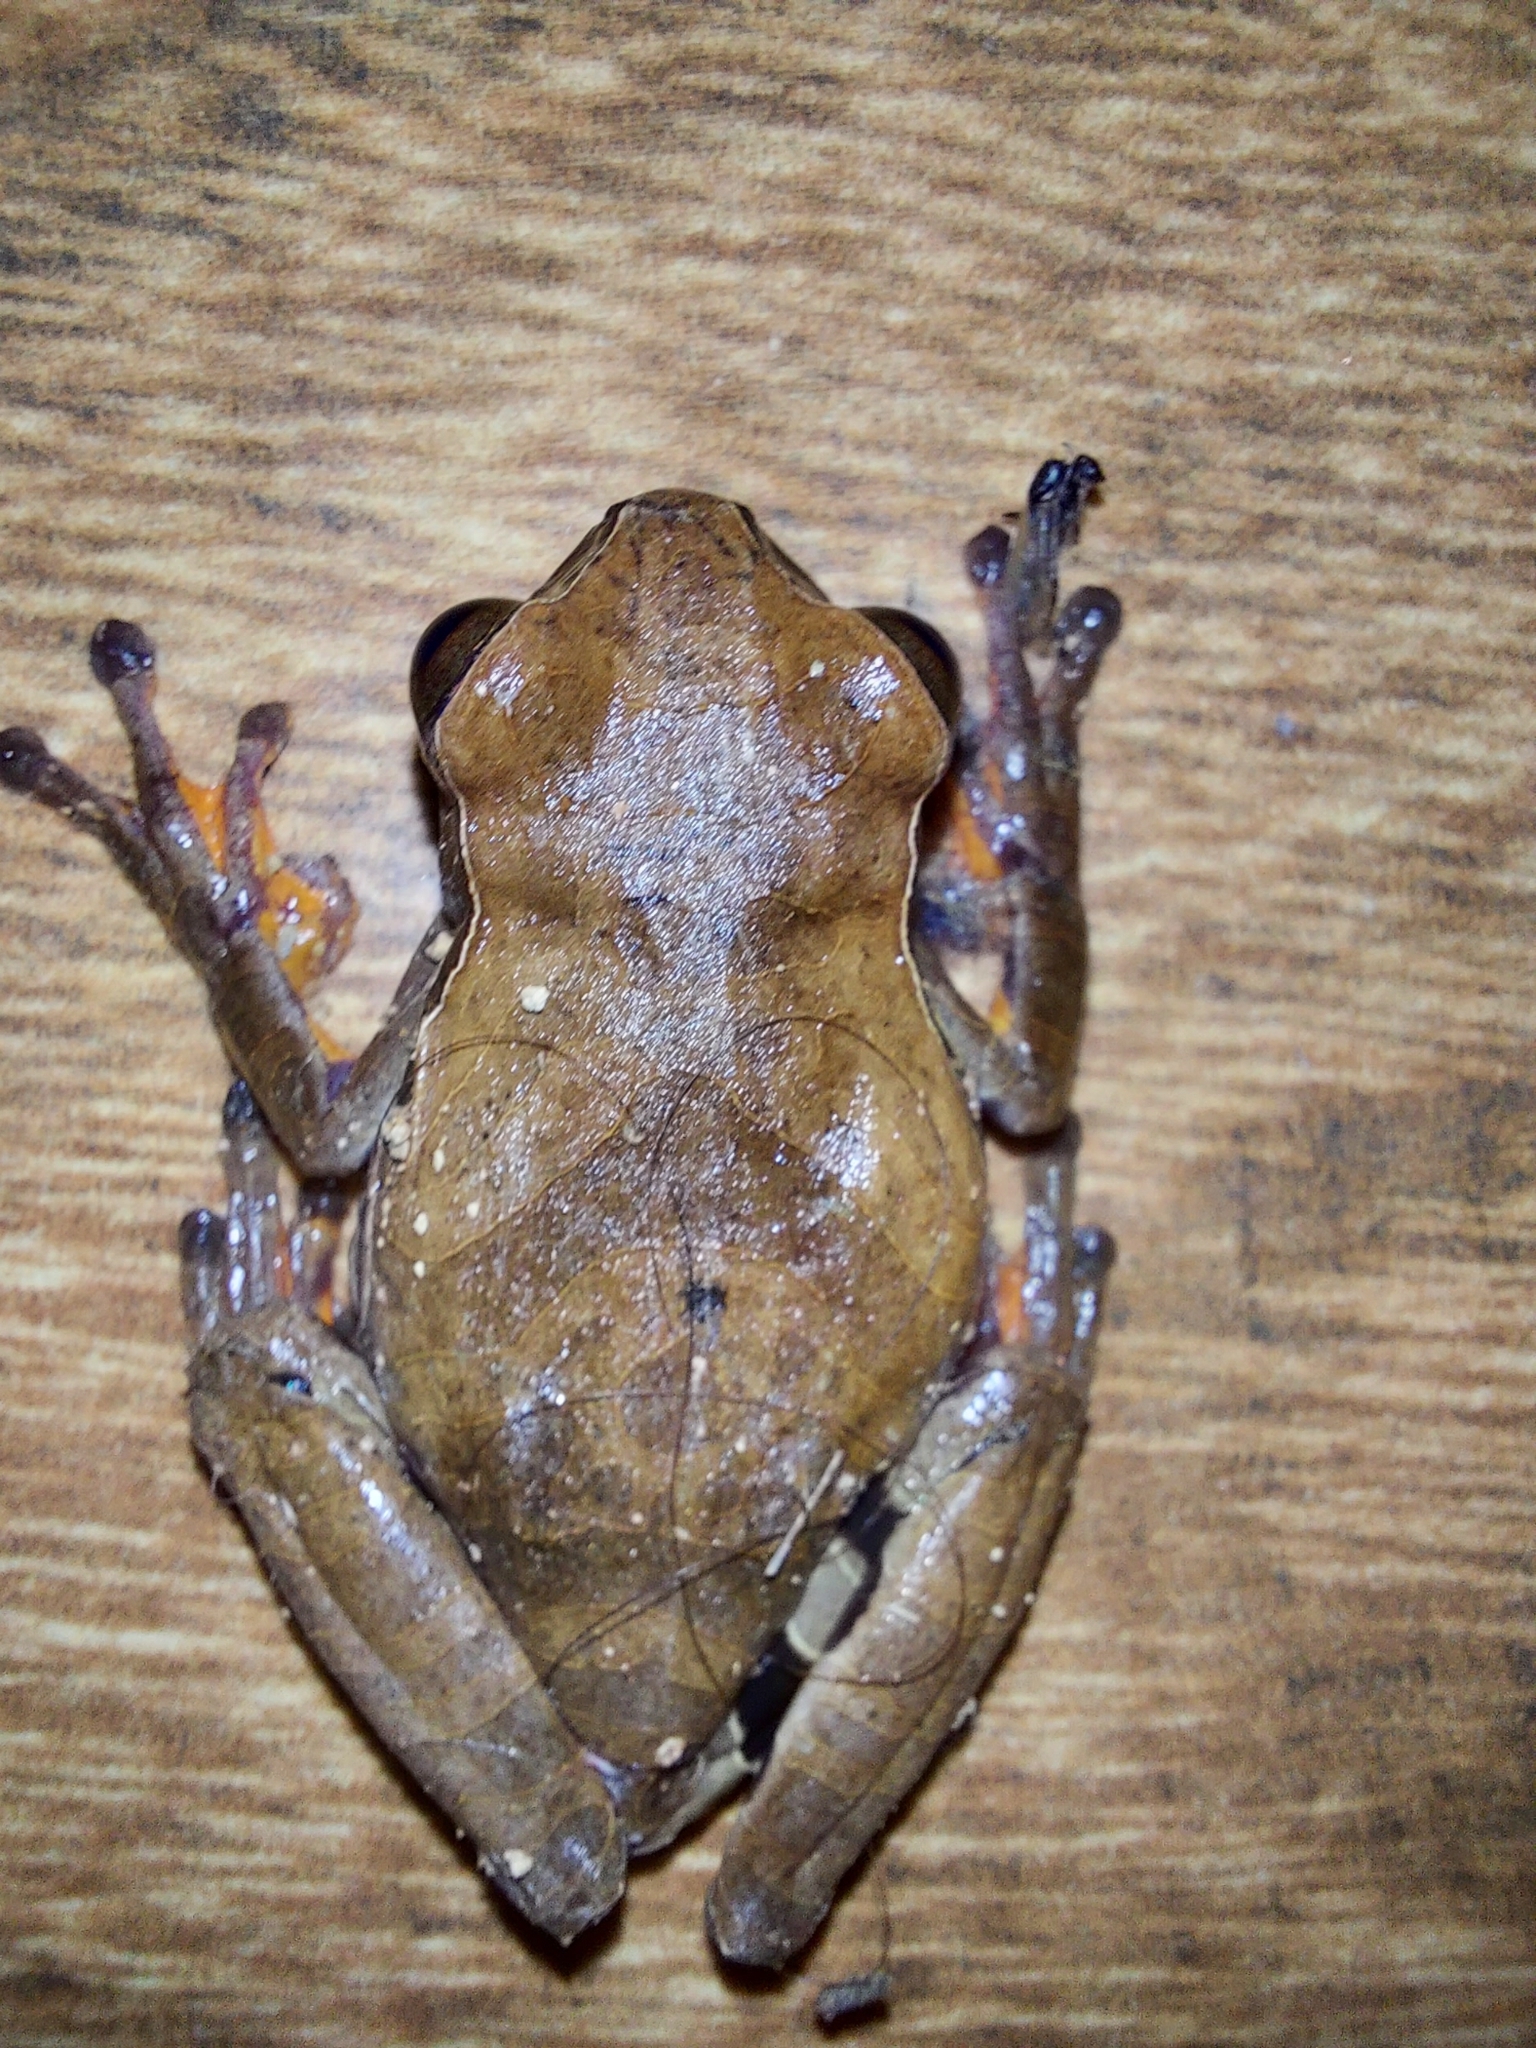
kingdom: Animalia
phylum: Chordata
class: Amphibia
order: Anura
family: Hylidae
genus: Dendropsophus
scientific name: Dendropsophus anceps
